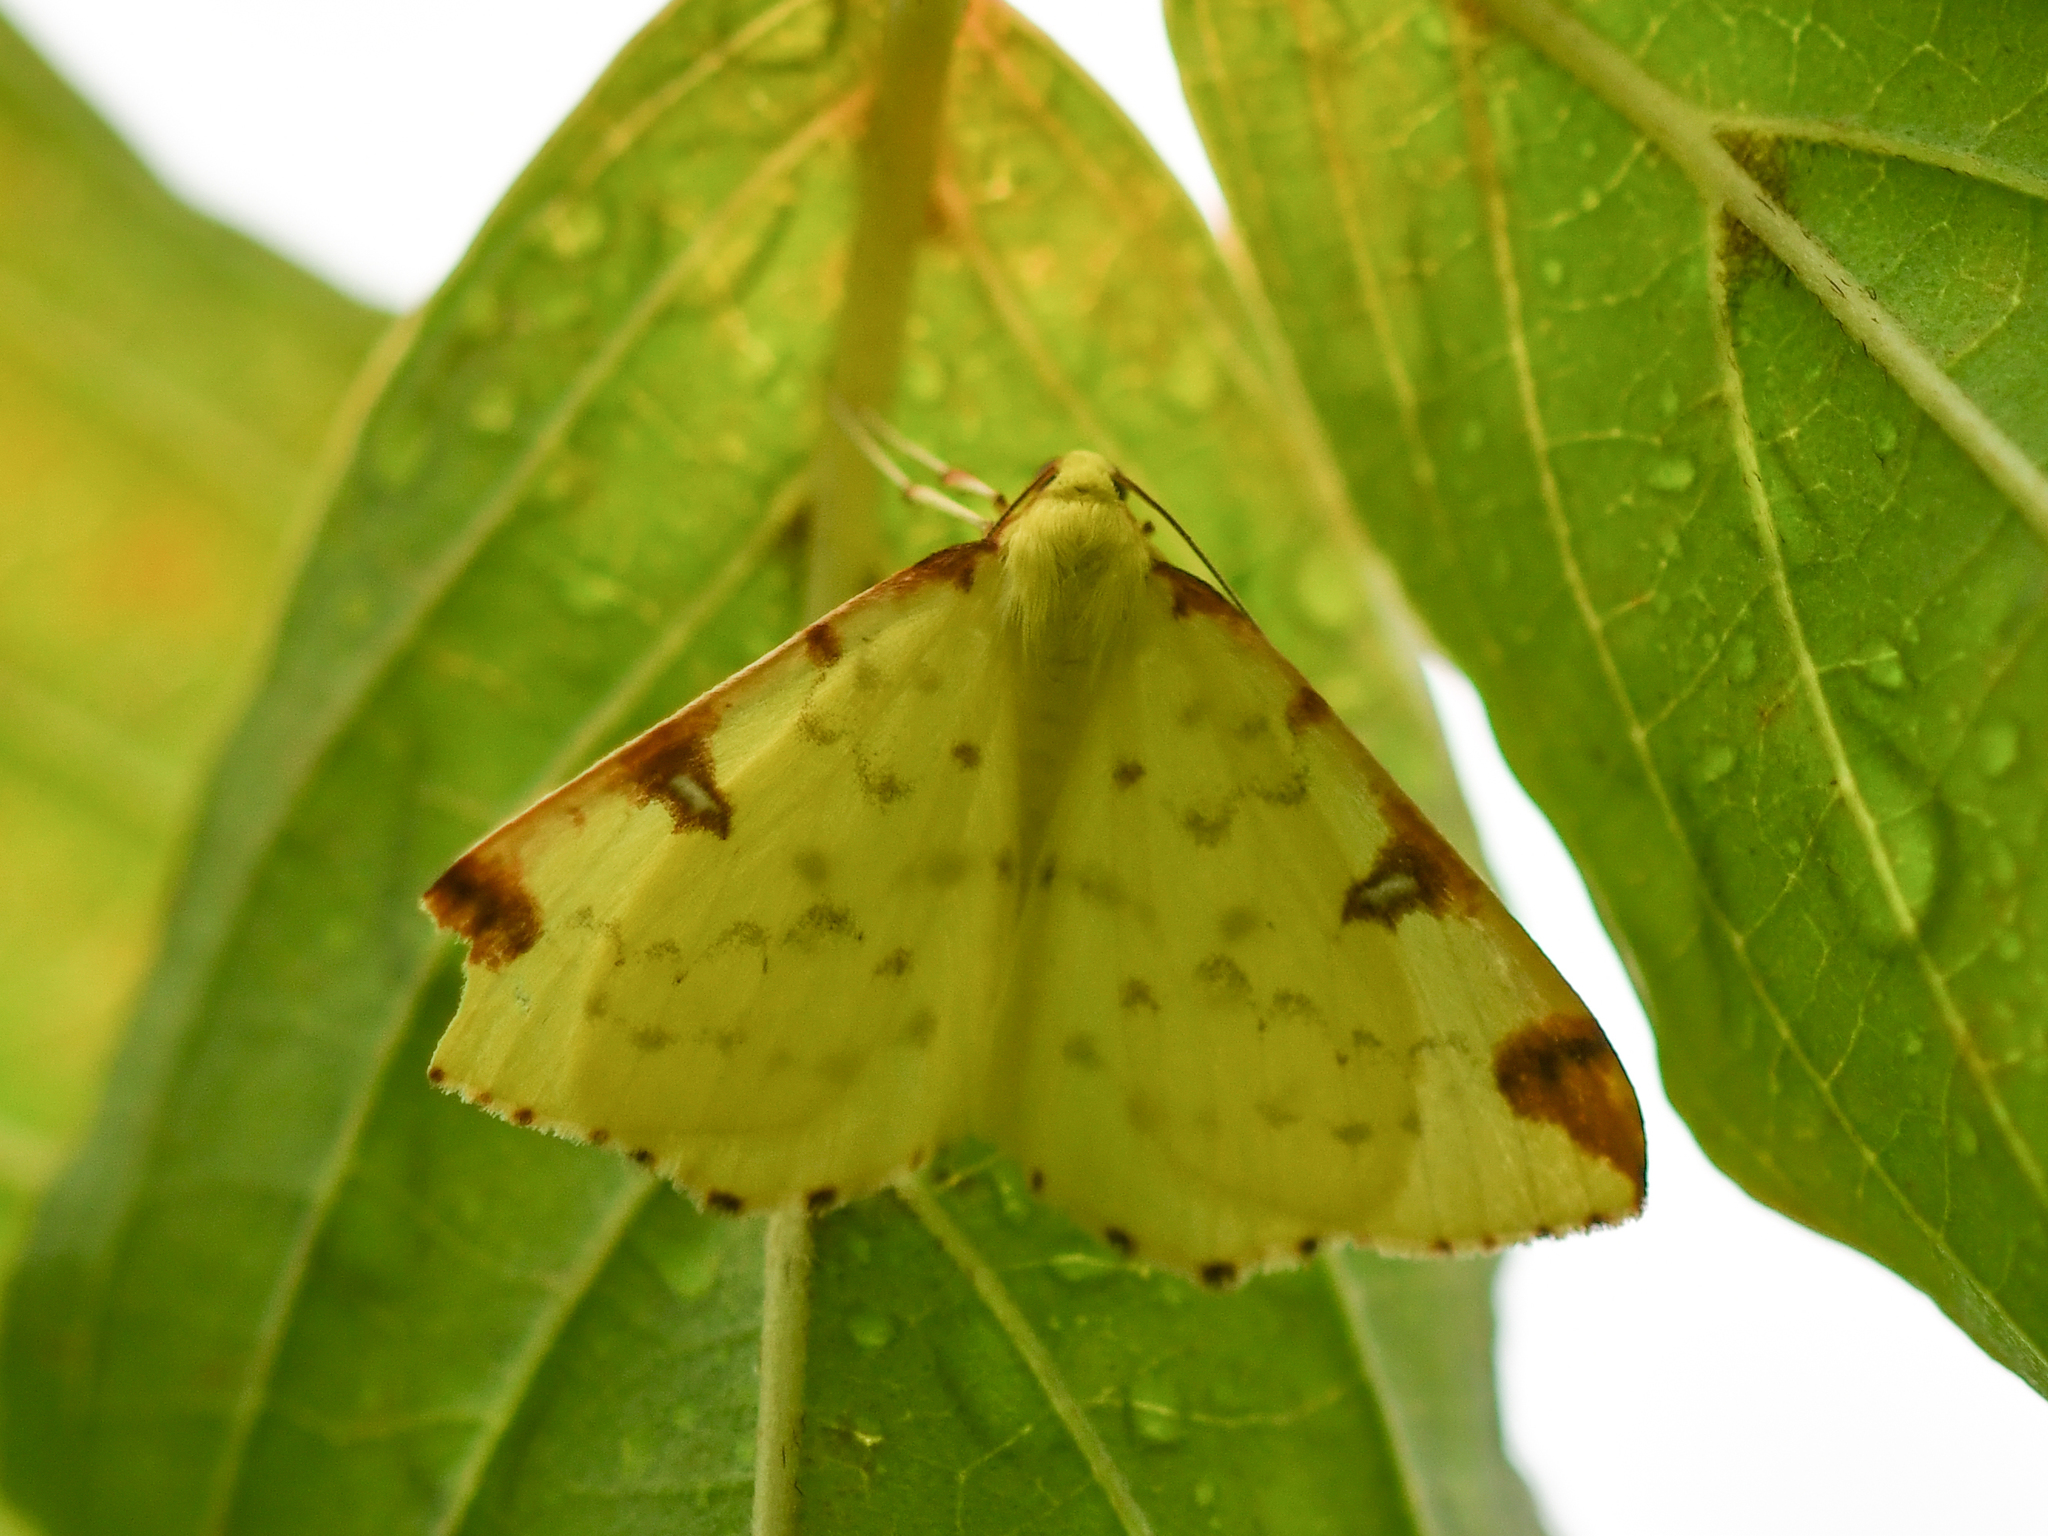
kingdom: Animalia
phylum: Arthropoda
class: Insecta
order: Lepidoptera
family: Geometridae
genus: Opisthograptis
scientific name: Opisthograptis luteolata
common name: Brimstone moth
